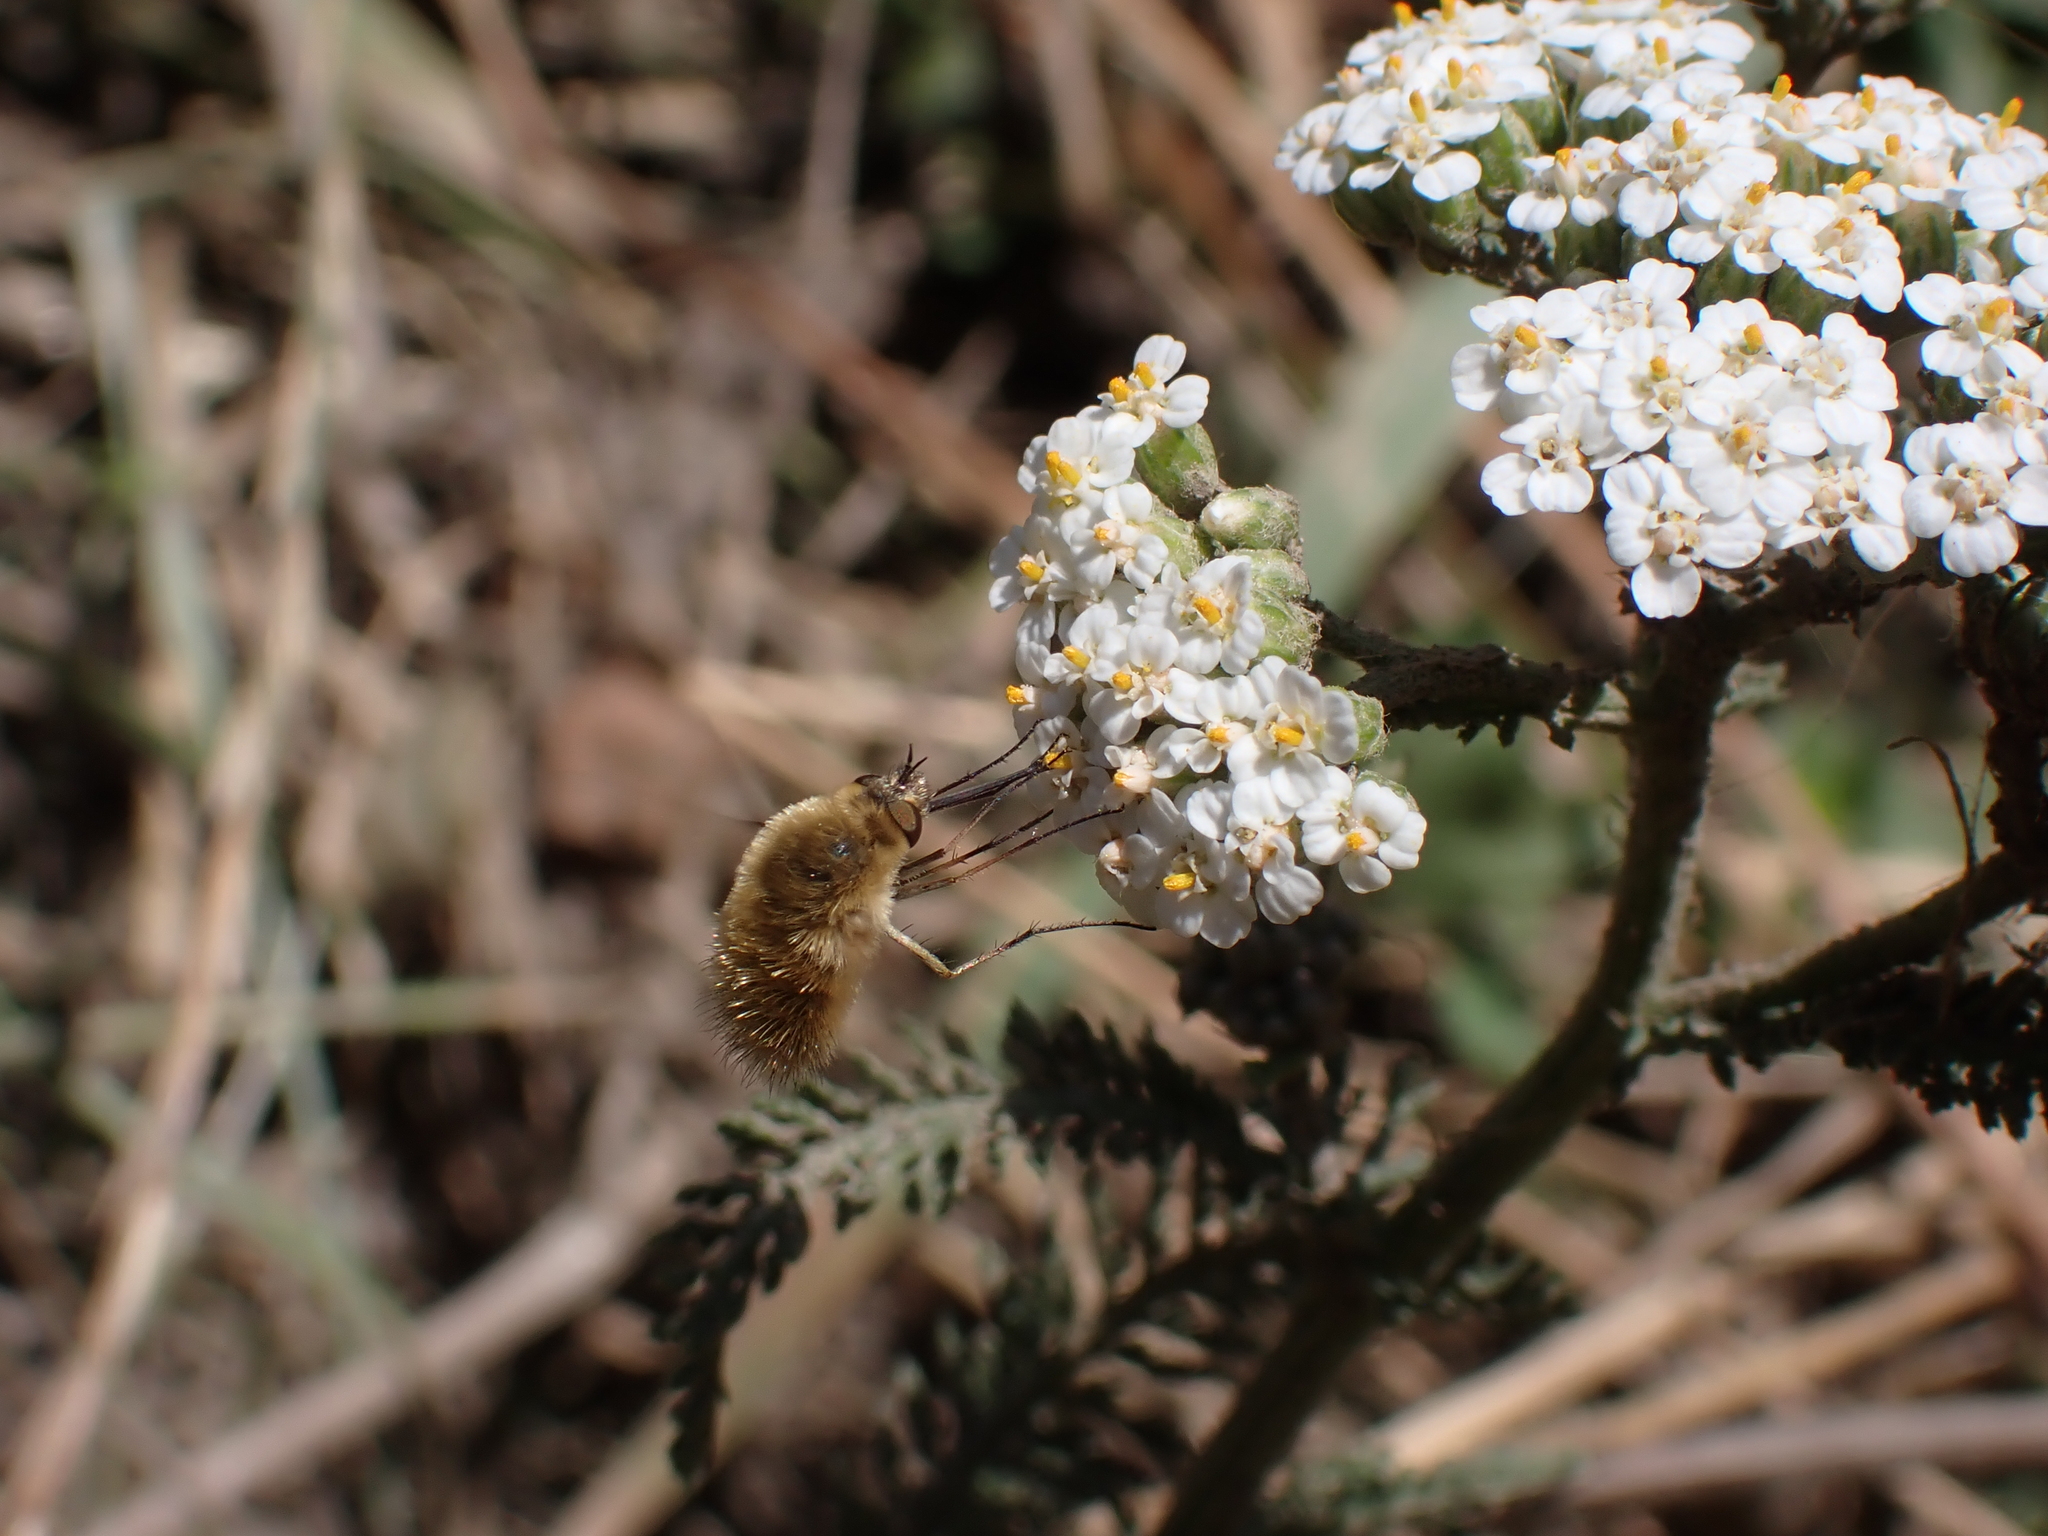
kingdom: Animalia
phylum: Arthropoda
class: Insecta
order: Diptera
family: Bombyliidae
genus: Systoechus
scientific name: Systoechus ctenopterus
